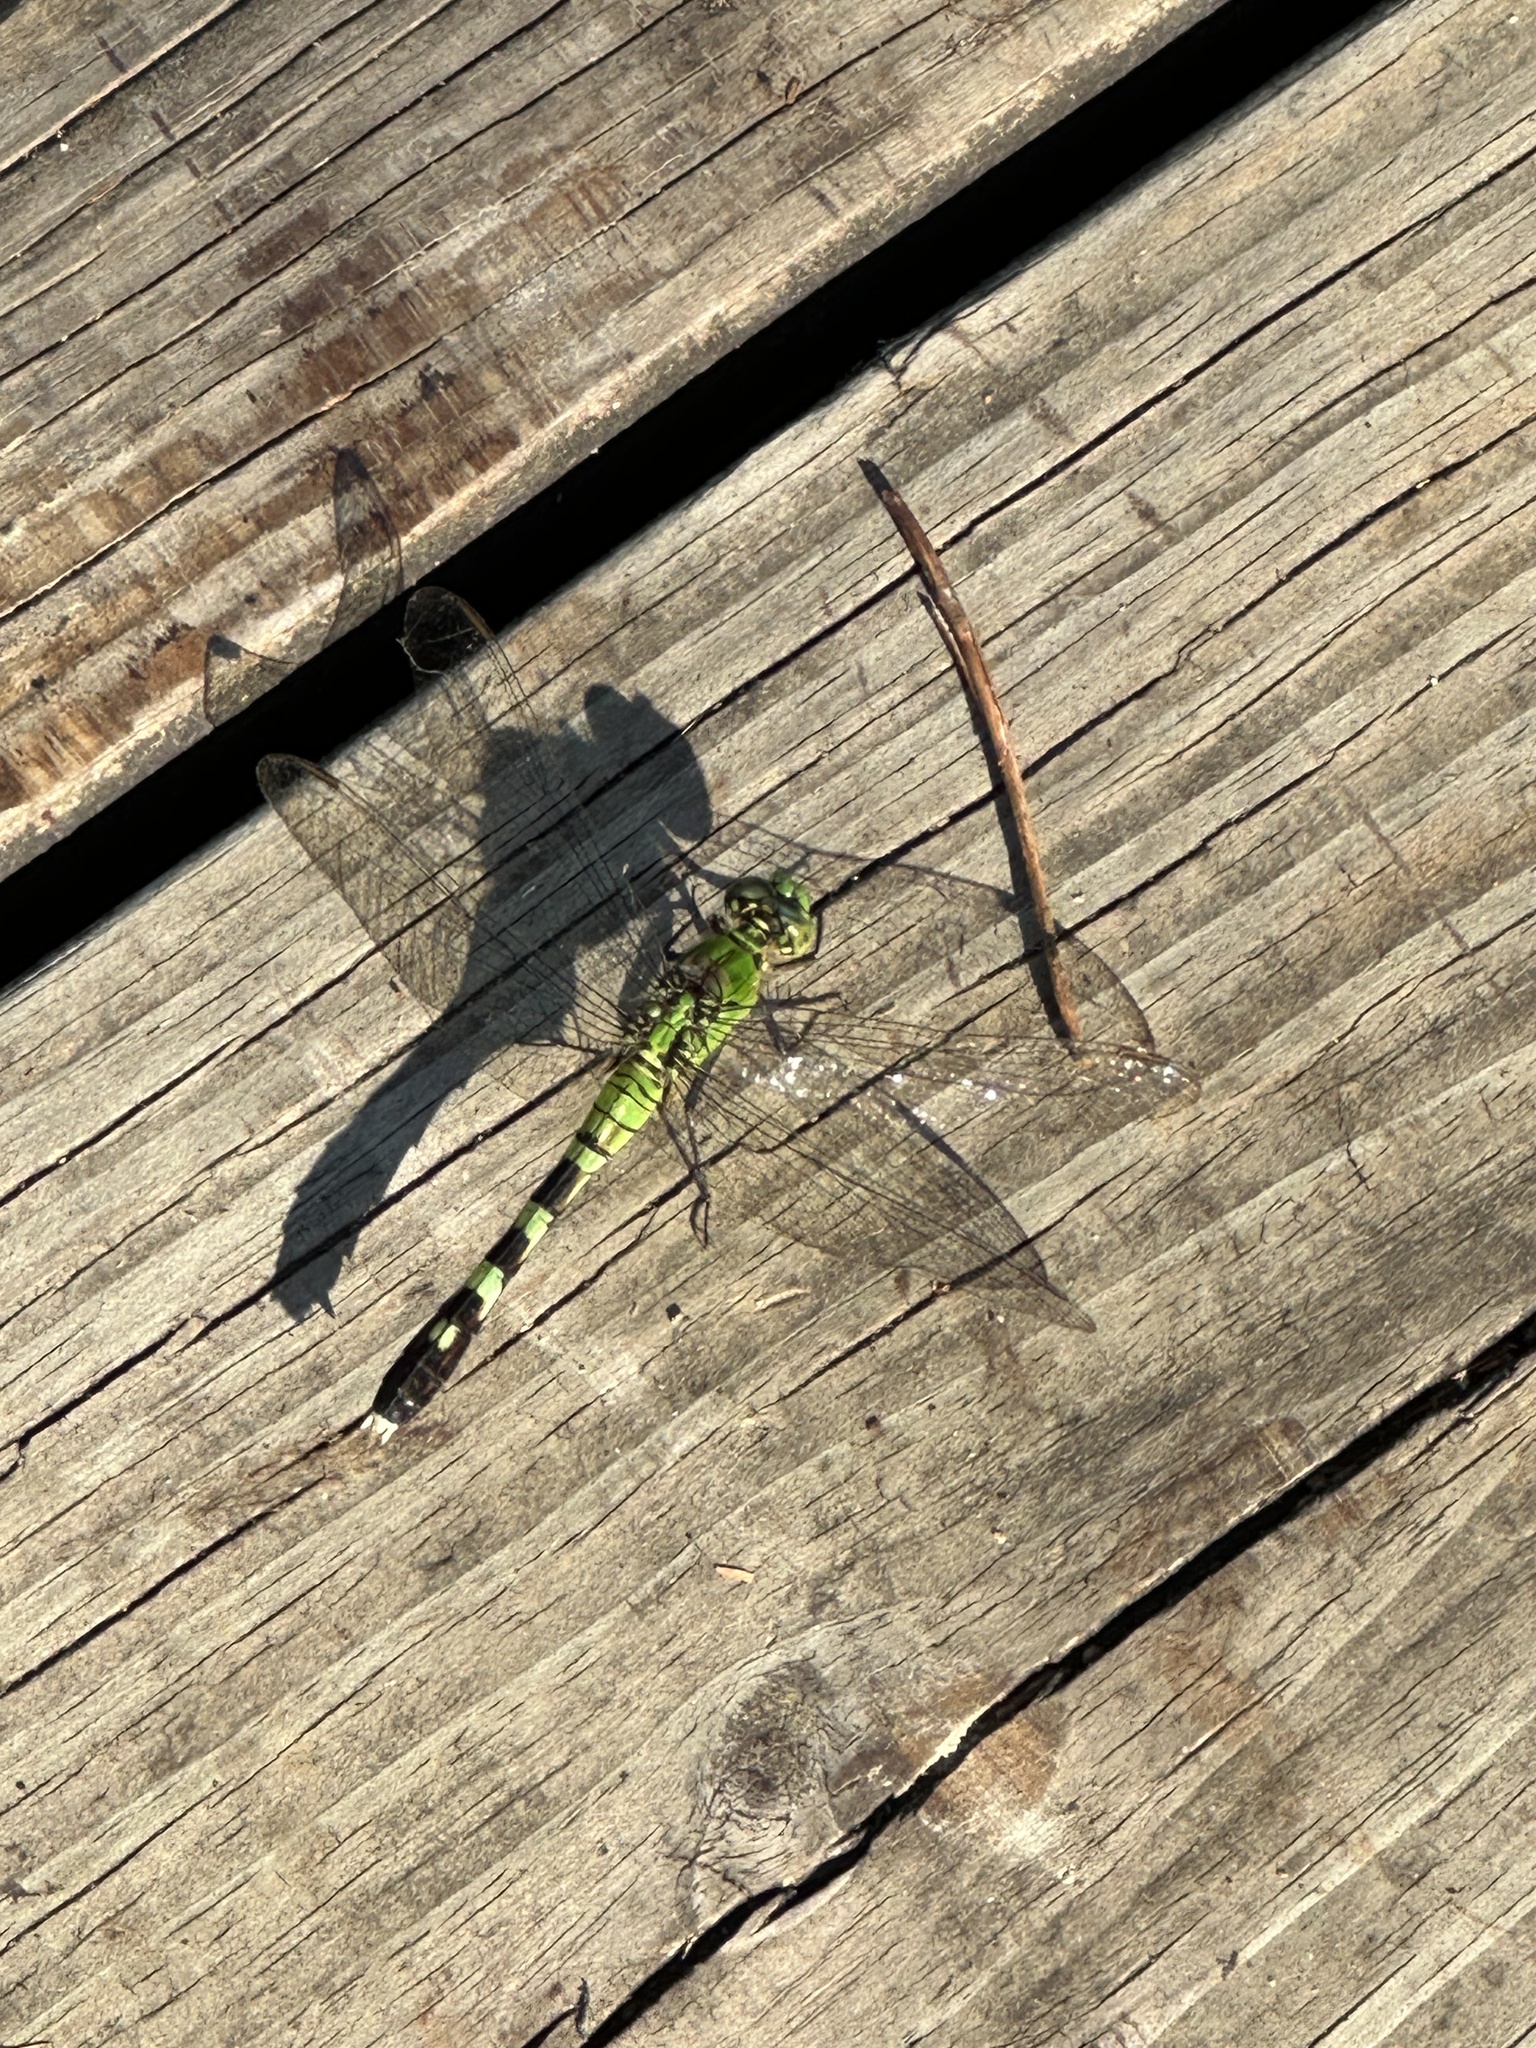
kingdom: Animalia
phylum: Arthropoda
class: Insecta
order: Odonata
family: Libellulidae
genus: Erythemis
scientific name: Erythemis simplicicollis
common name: Eastern pondhawk
